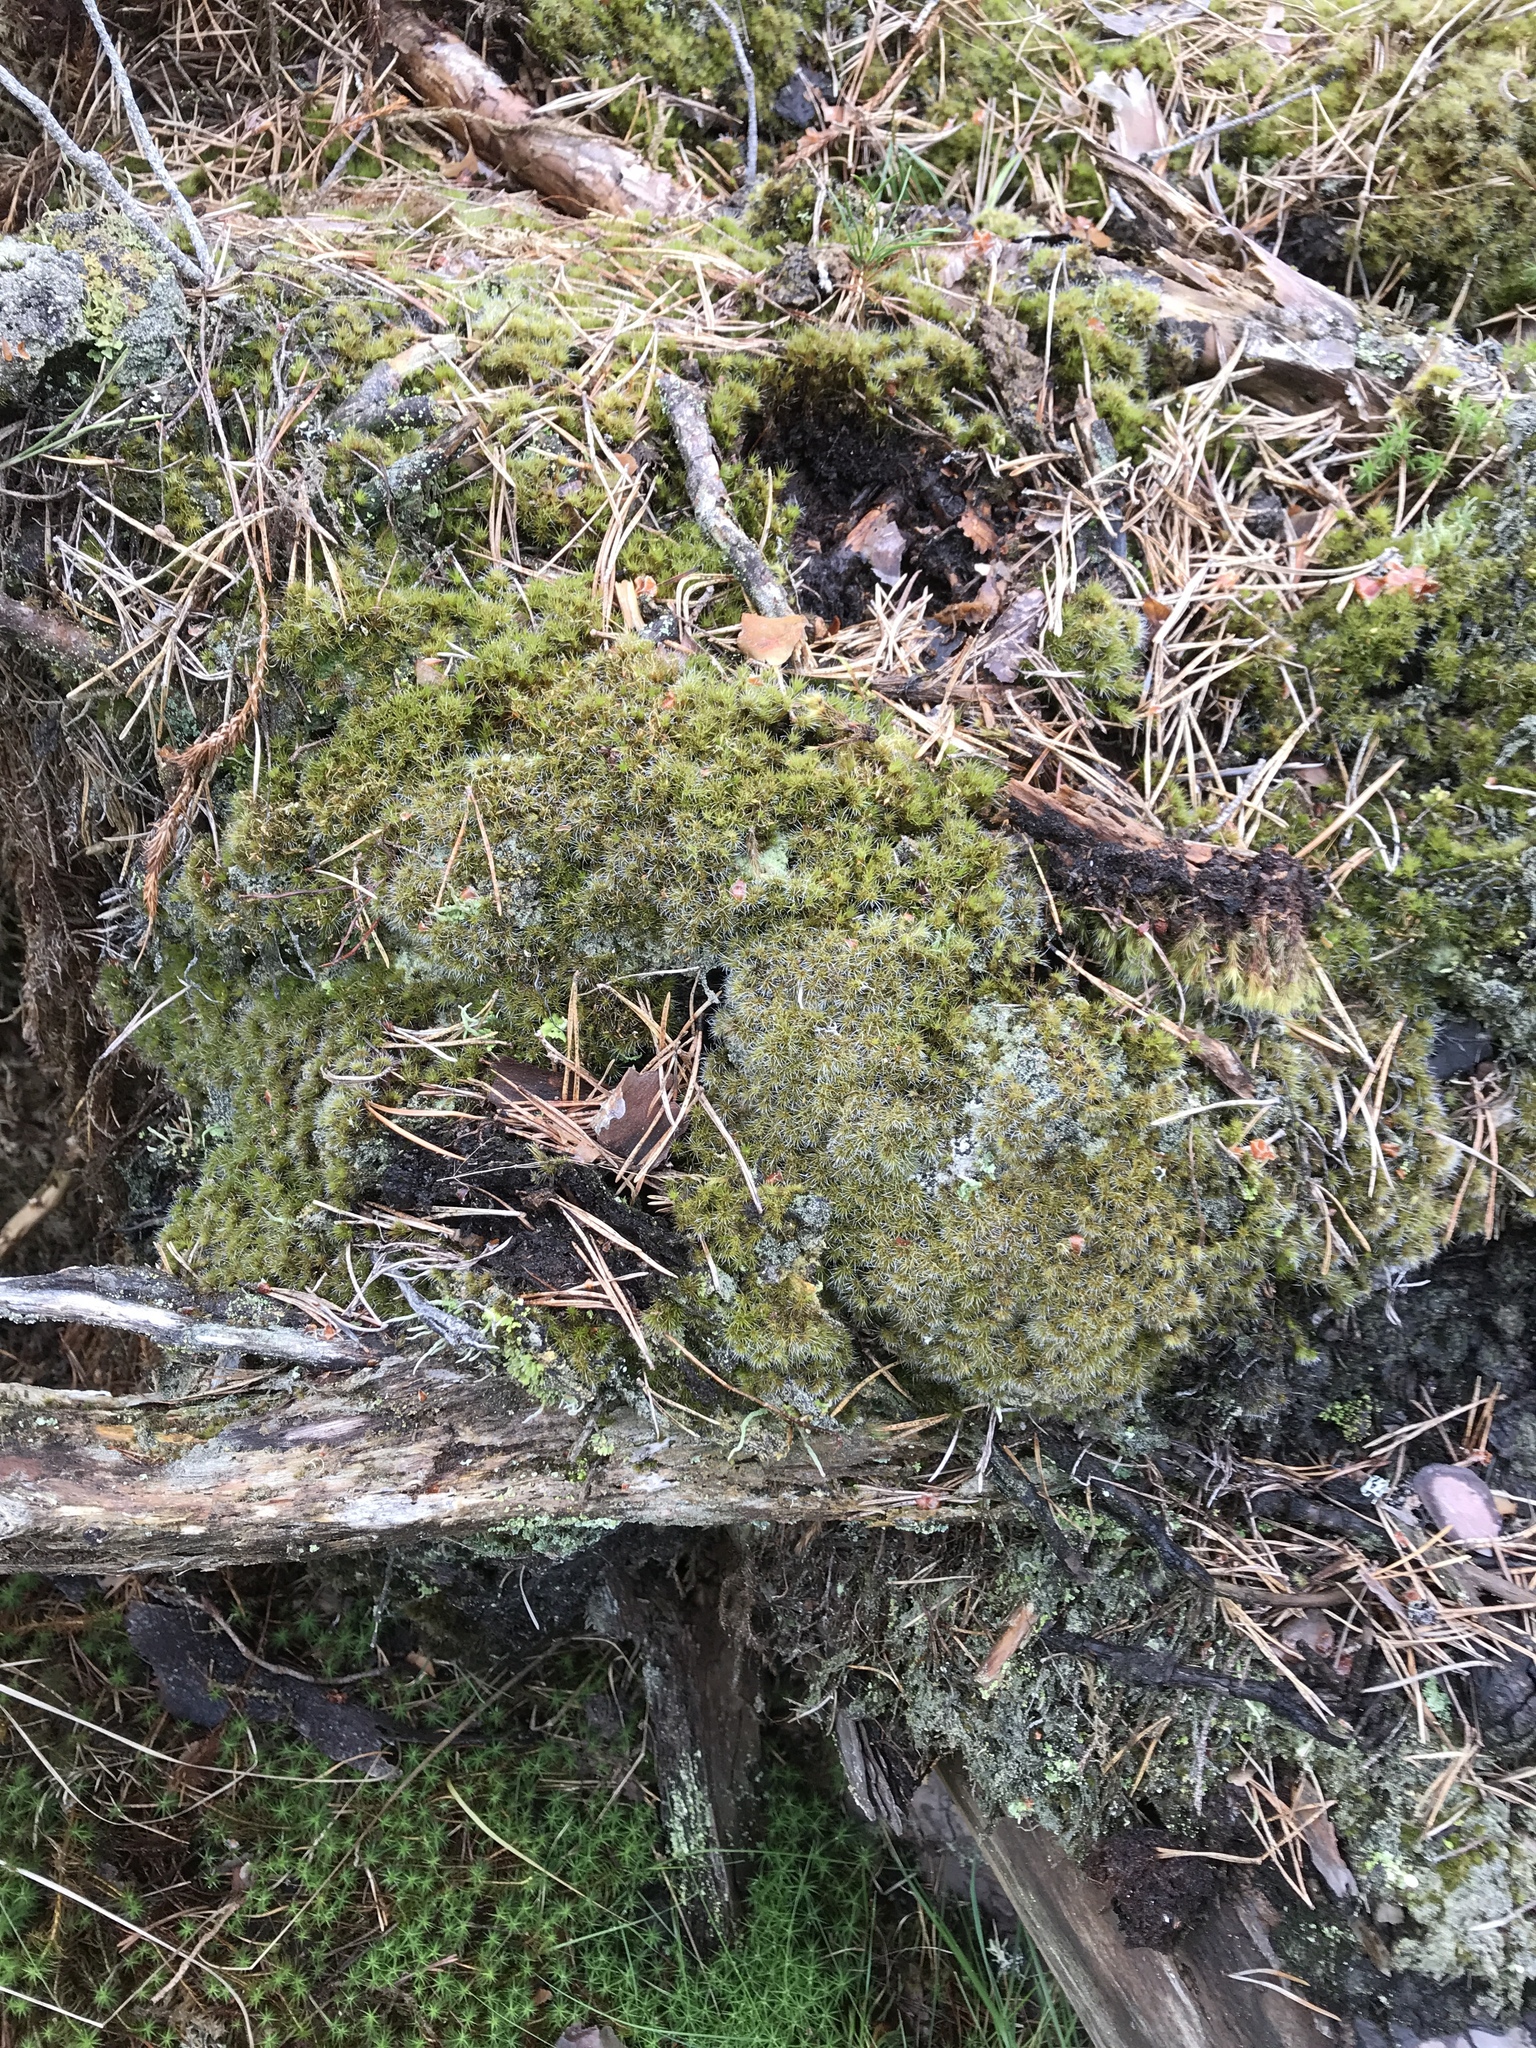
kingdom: Plantae
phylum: Bryophyta
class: Bryopsida
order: Dicranales
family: Leucobryaceae
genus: Campylopus
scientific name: Campylopus introflexus
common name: Heath star moss
